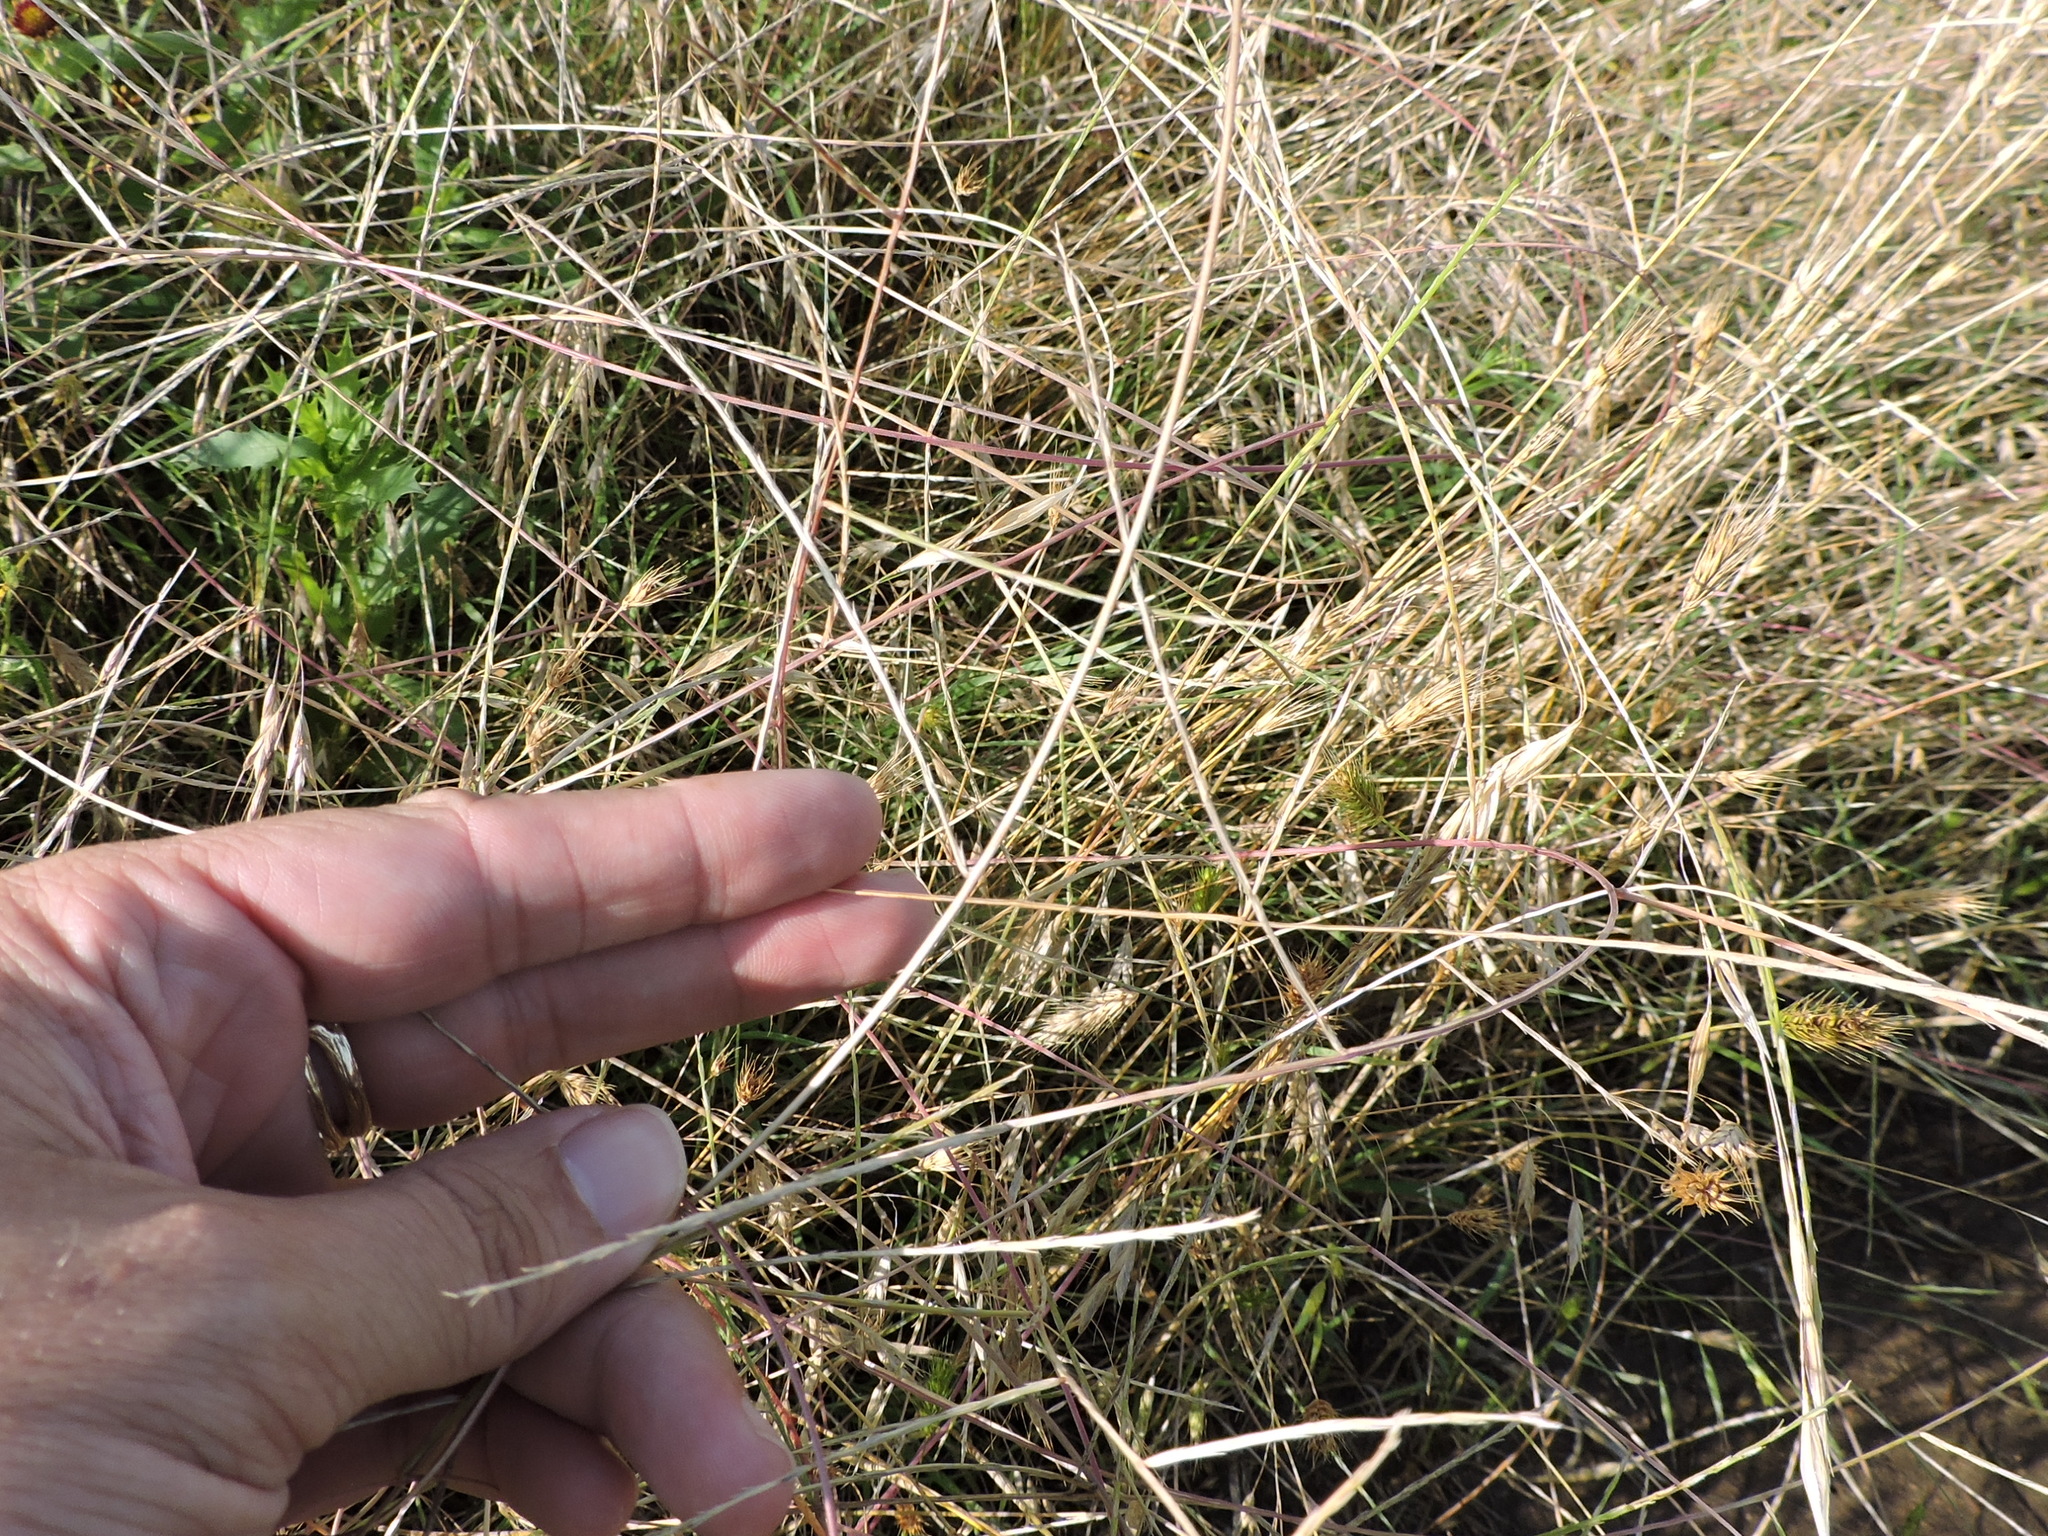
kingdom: Plantae
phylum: Tracheophyta
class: Liliopsida
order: Poales
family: Poaceae
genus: Muhlenbergia
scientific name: Muhlenbergia paniculata
